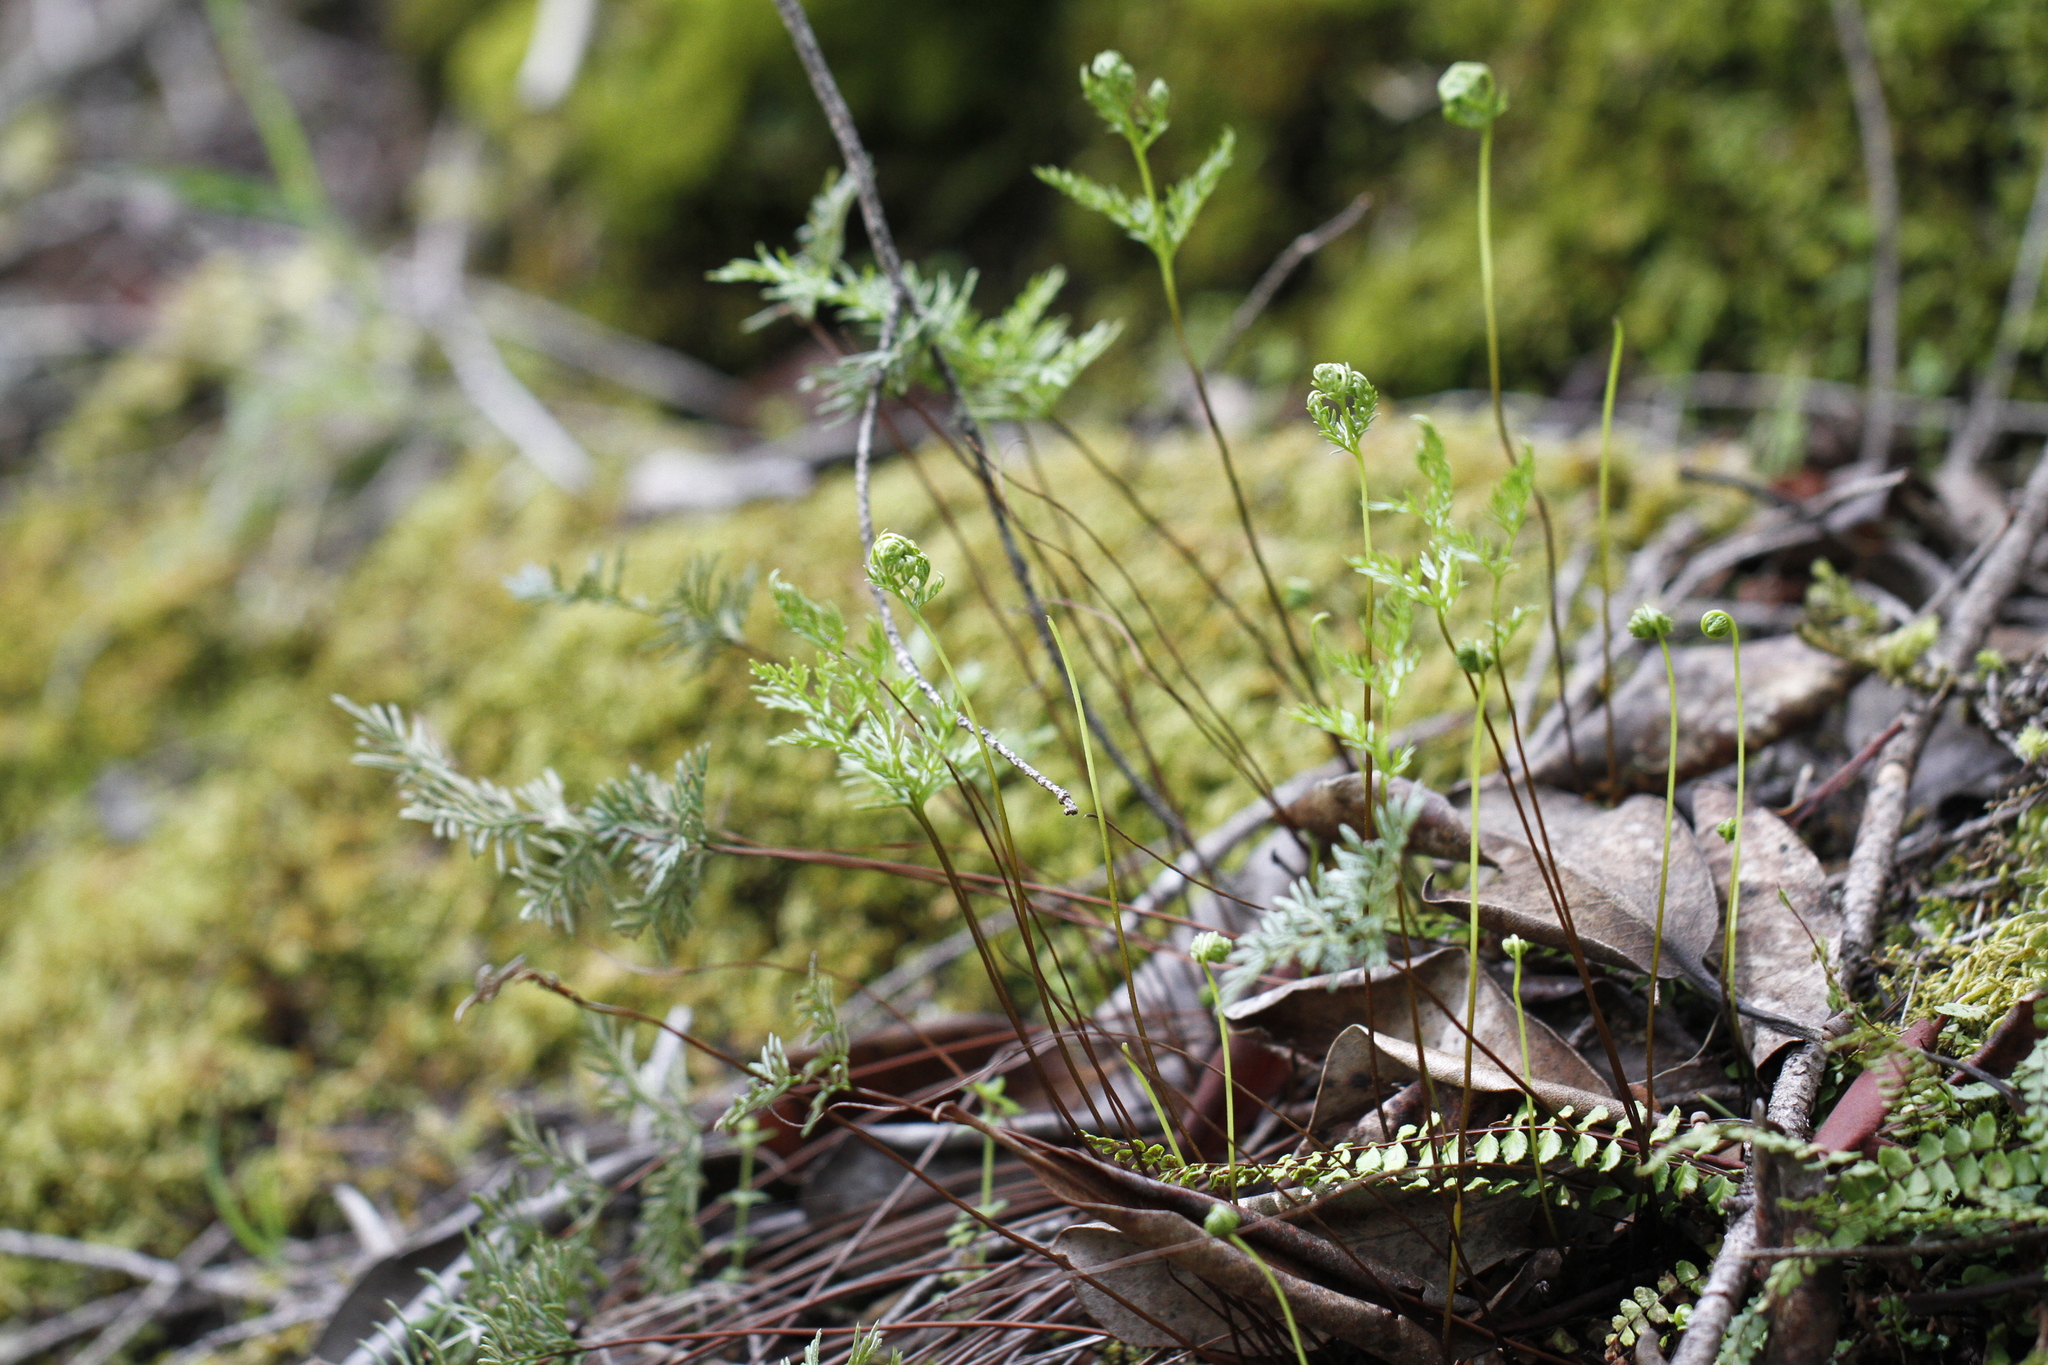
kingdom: Plantae
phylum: Tracheophyta
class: Polypodiopsida
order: Polypodiales
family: Pteridaceae
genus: Aspidotis
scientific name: Aspidotis densa
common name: Indian's dream
